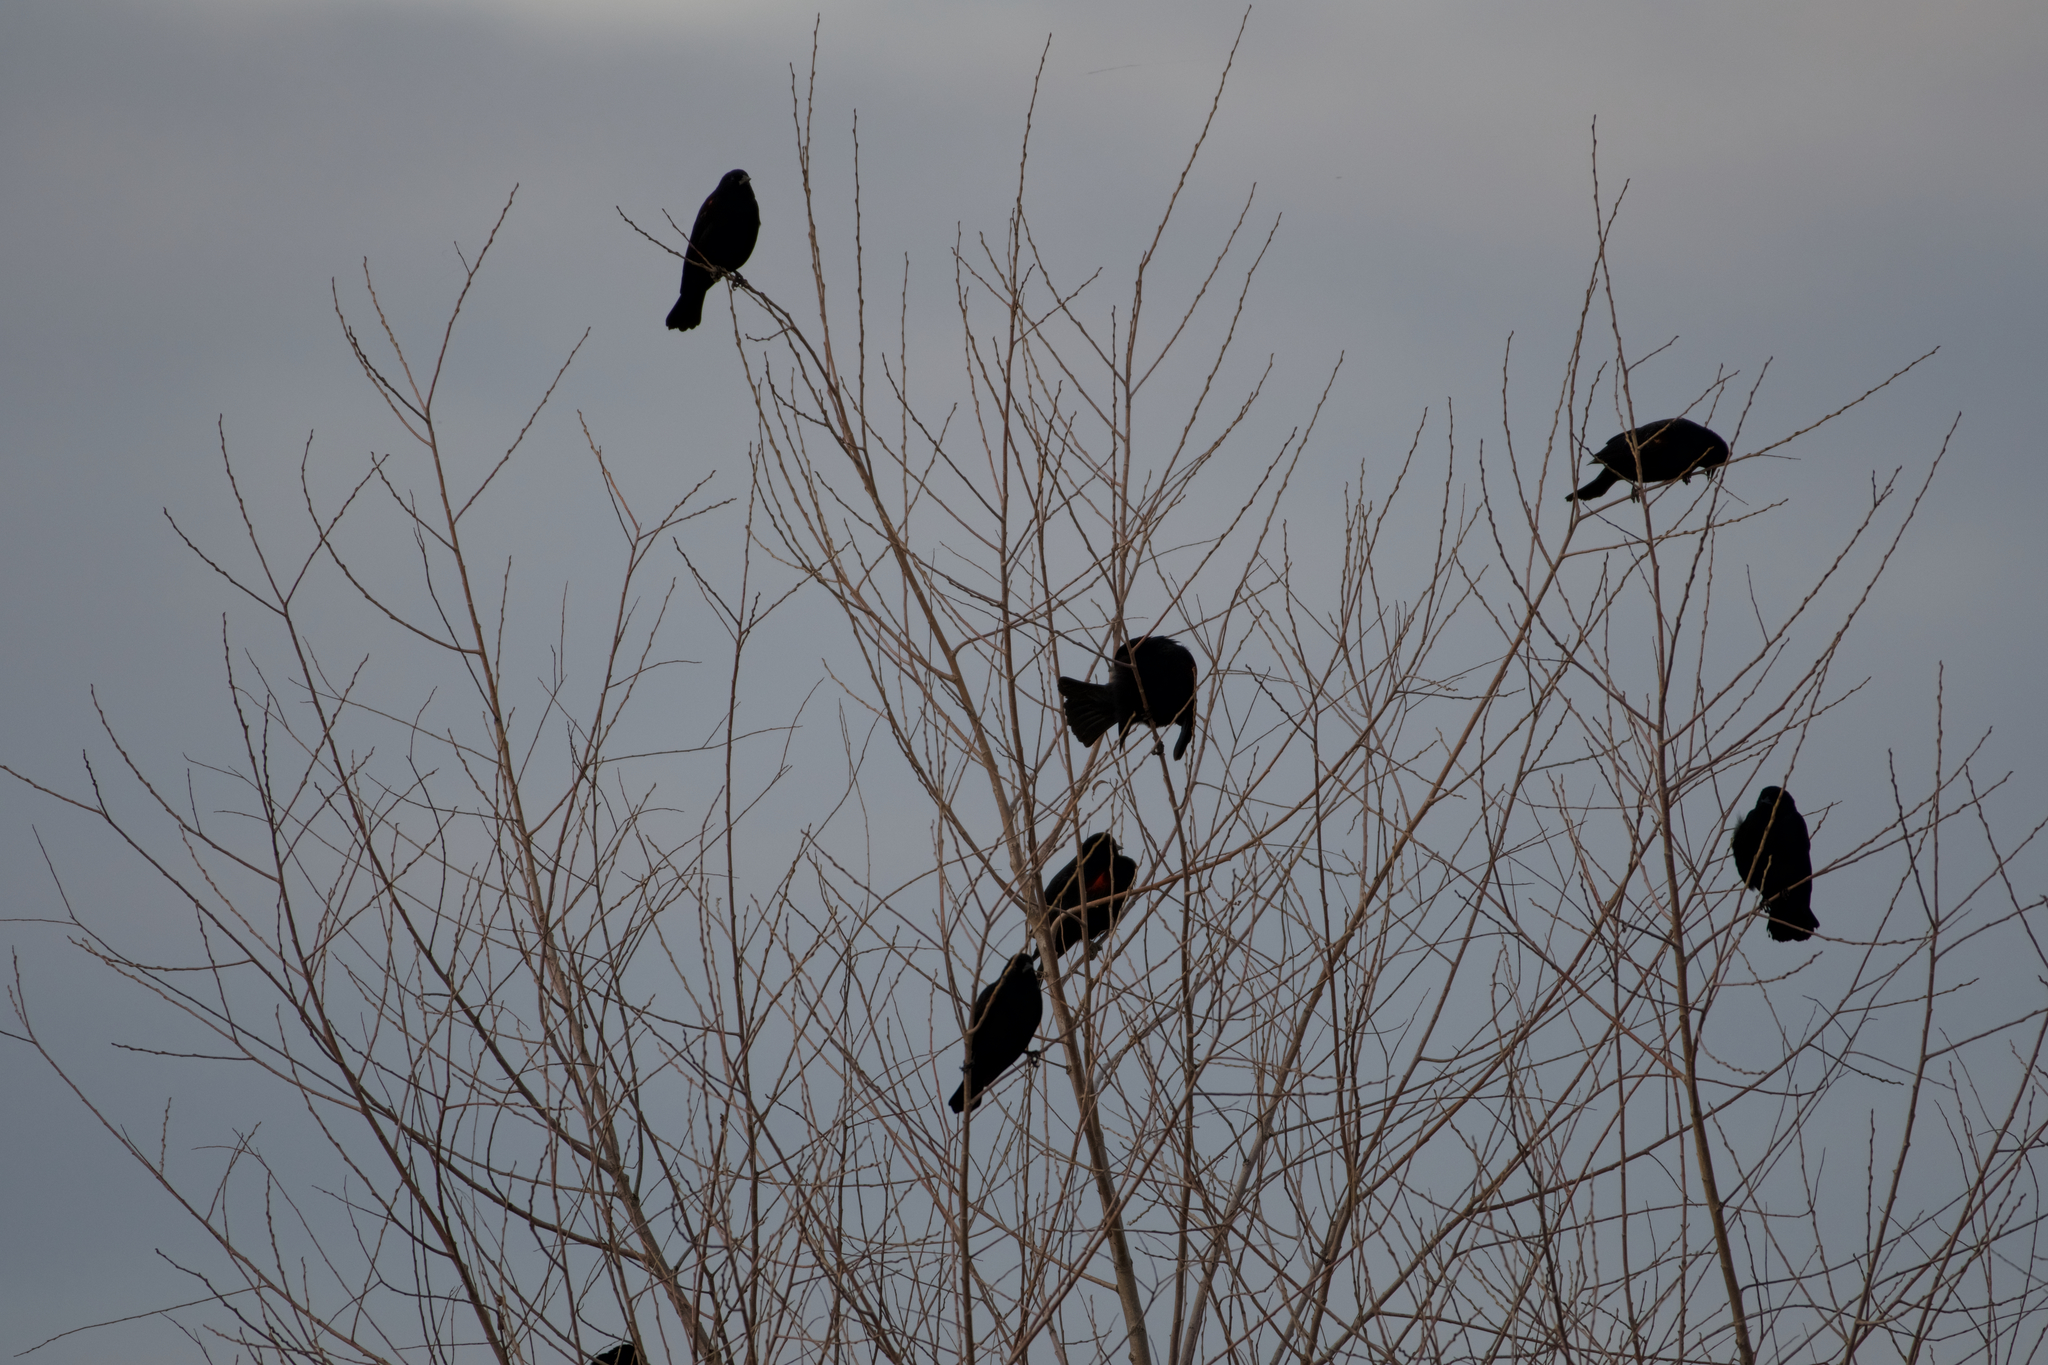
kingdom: Animalia
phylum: Chordata
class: Aves
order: Passeriformes
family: Icteridae
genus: Agelaius
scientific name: Agelaius phoeniceus
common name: Red-winged blackbird
